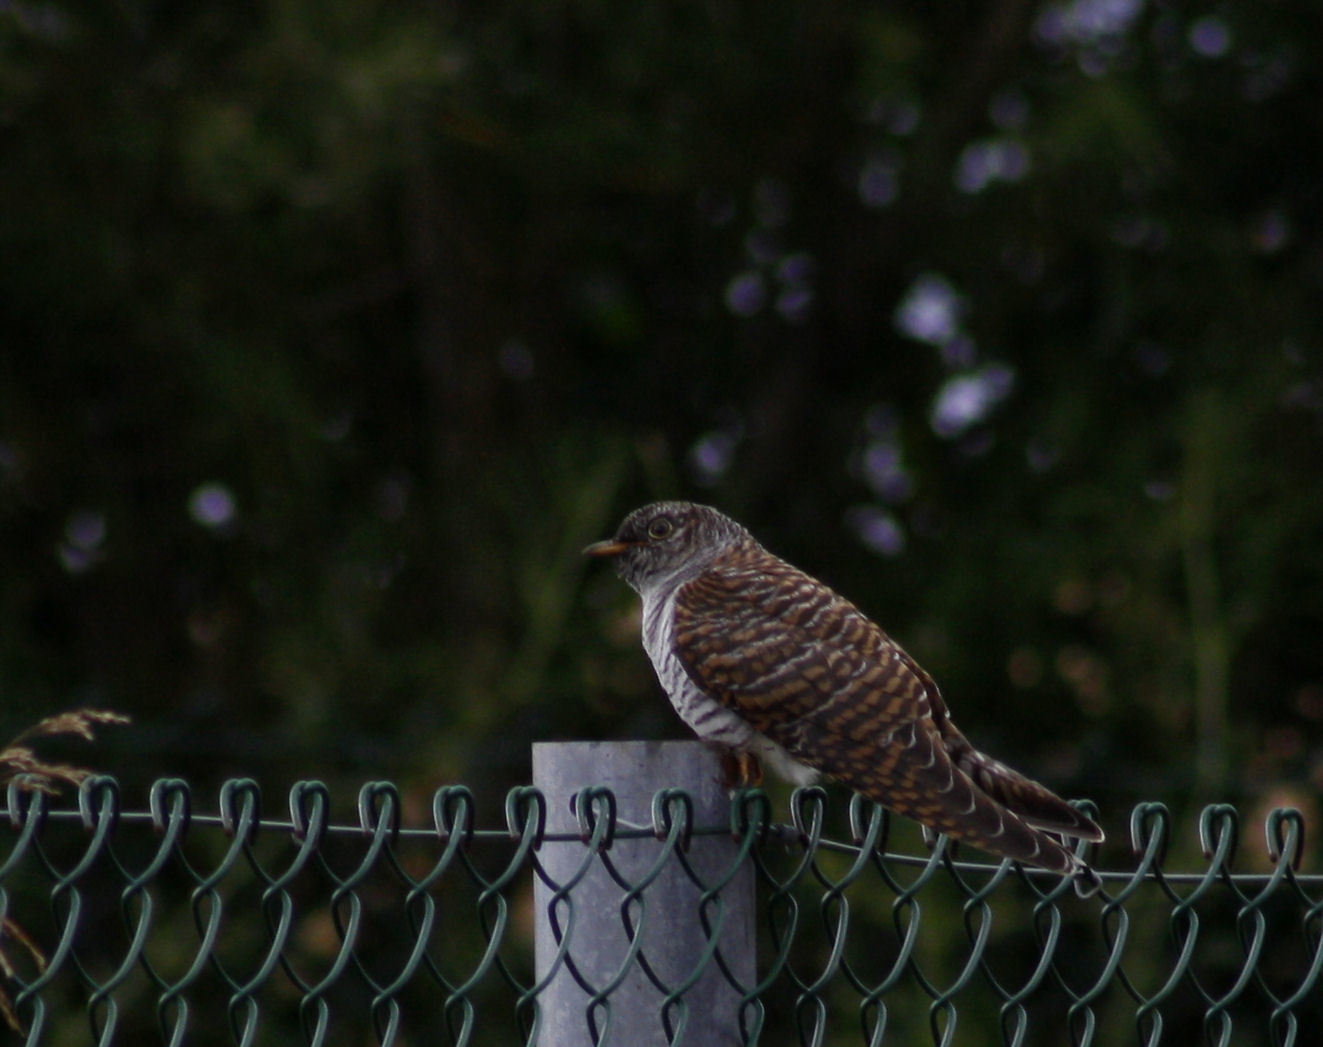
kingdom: Animalia
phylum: Chordata
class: Aves
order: Cuculiformes
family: Cuculidae
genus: Cuculus
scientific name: Cuculus canorus
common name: Common cuckoo
